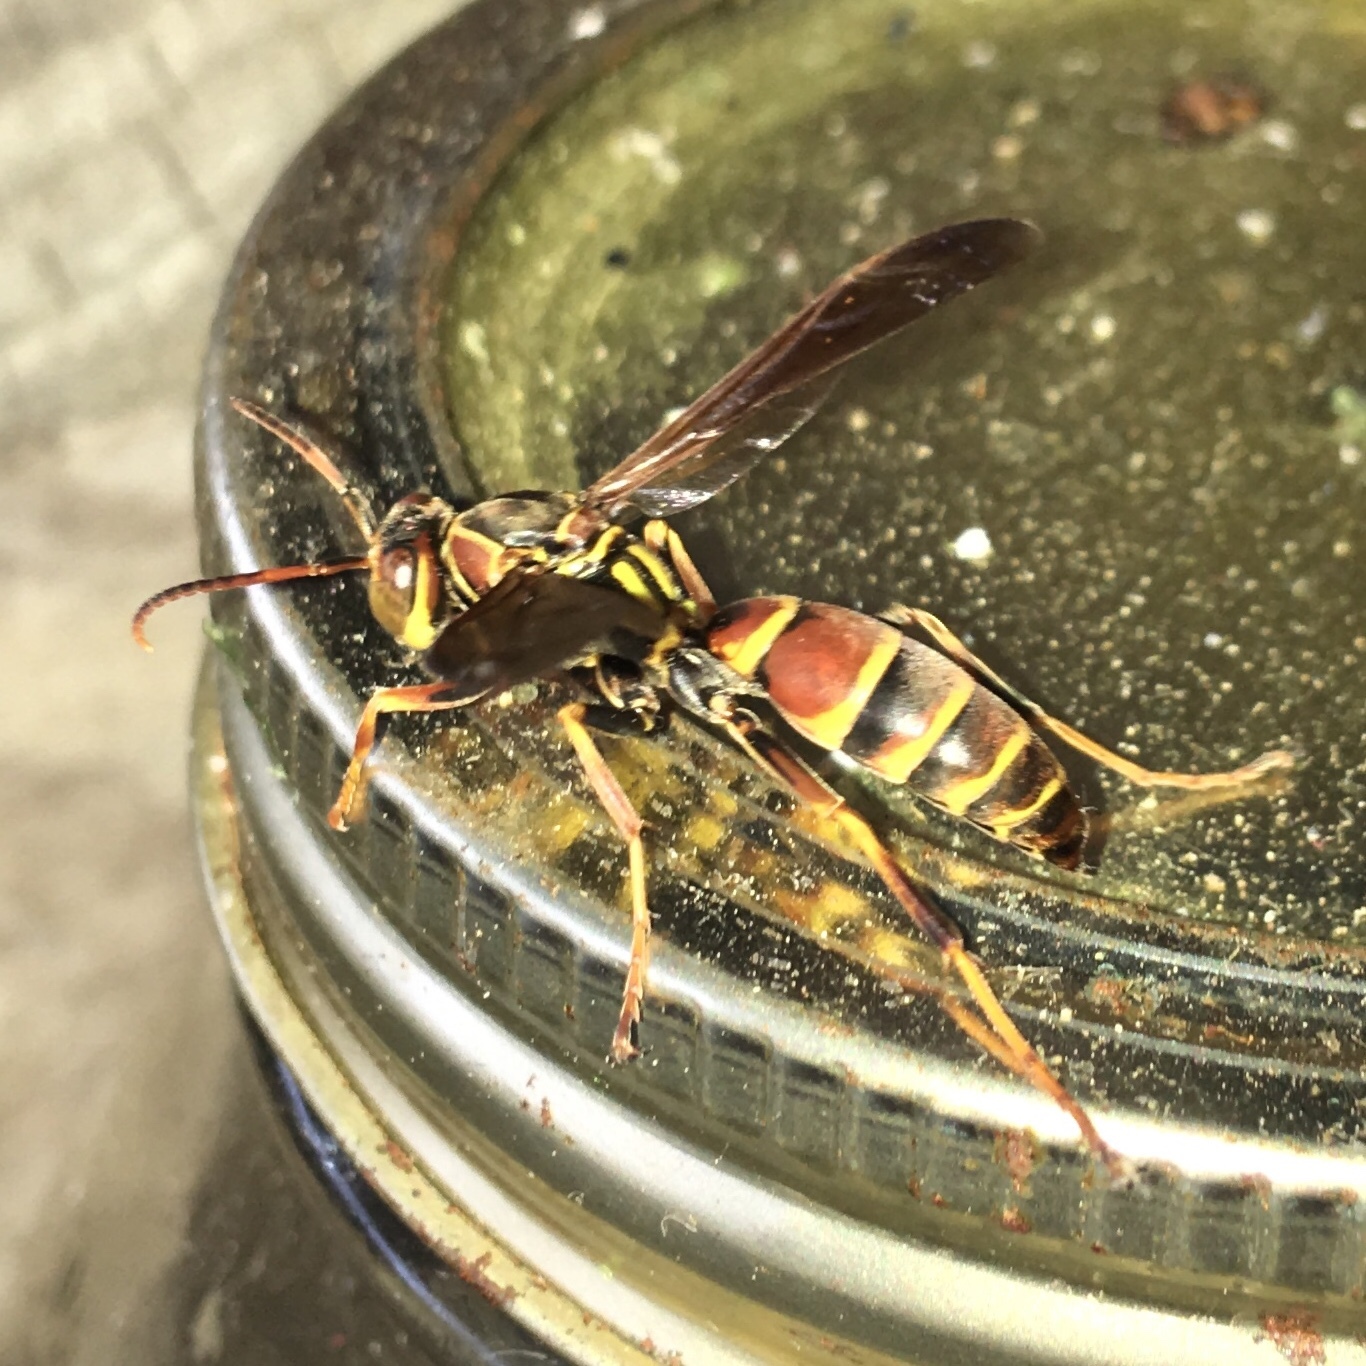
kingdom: Animalia
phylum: Arthropoda
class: Insecta
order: Hymenoptera
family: Eumenidae
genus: Polistes
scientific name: Polistes dorsalis
